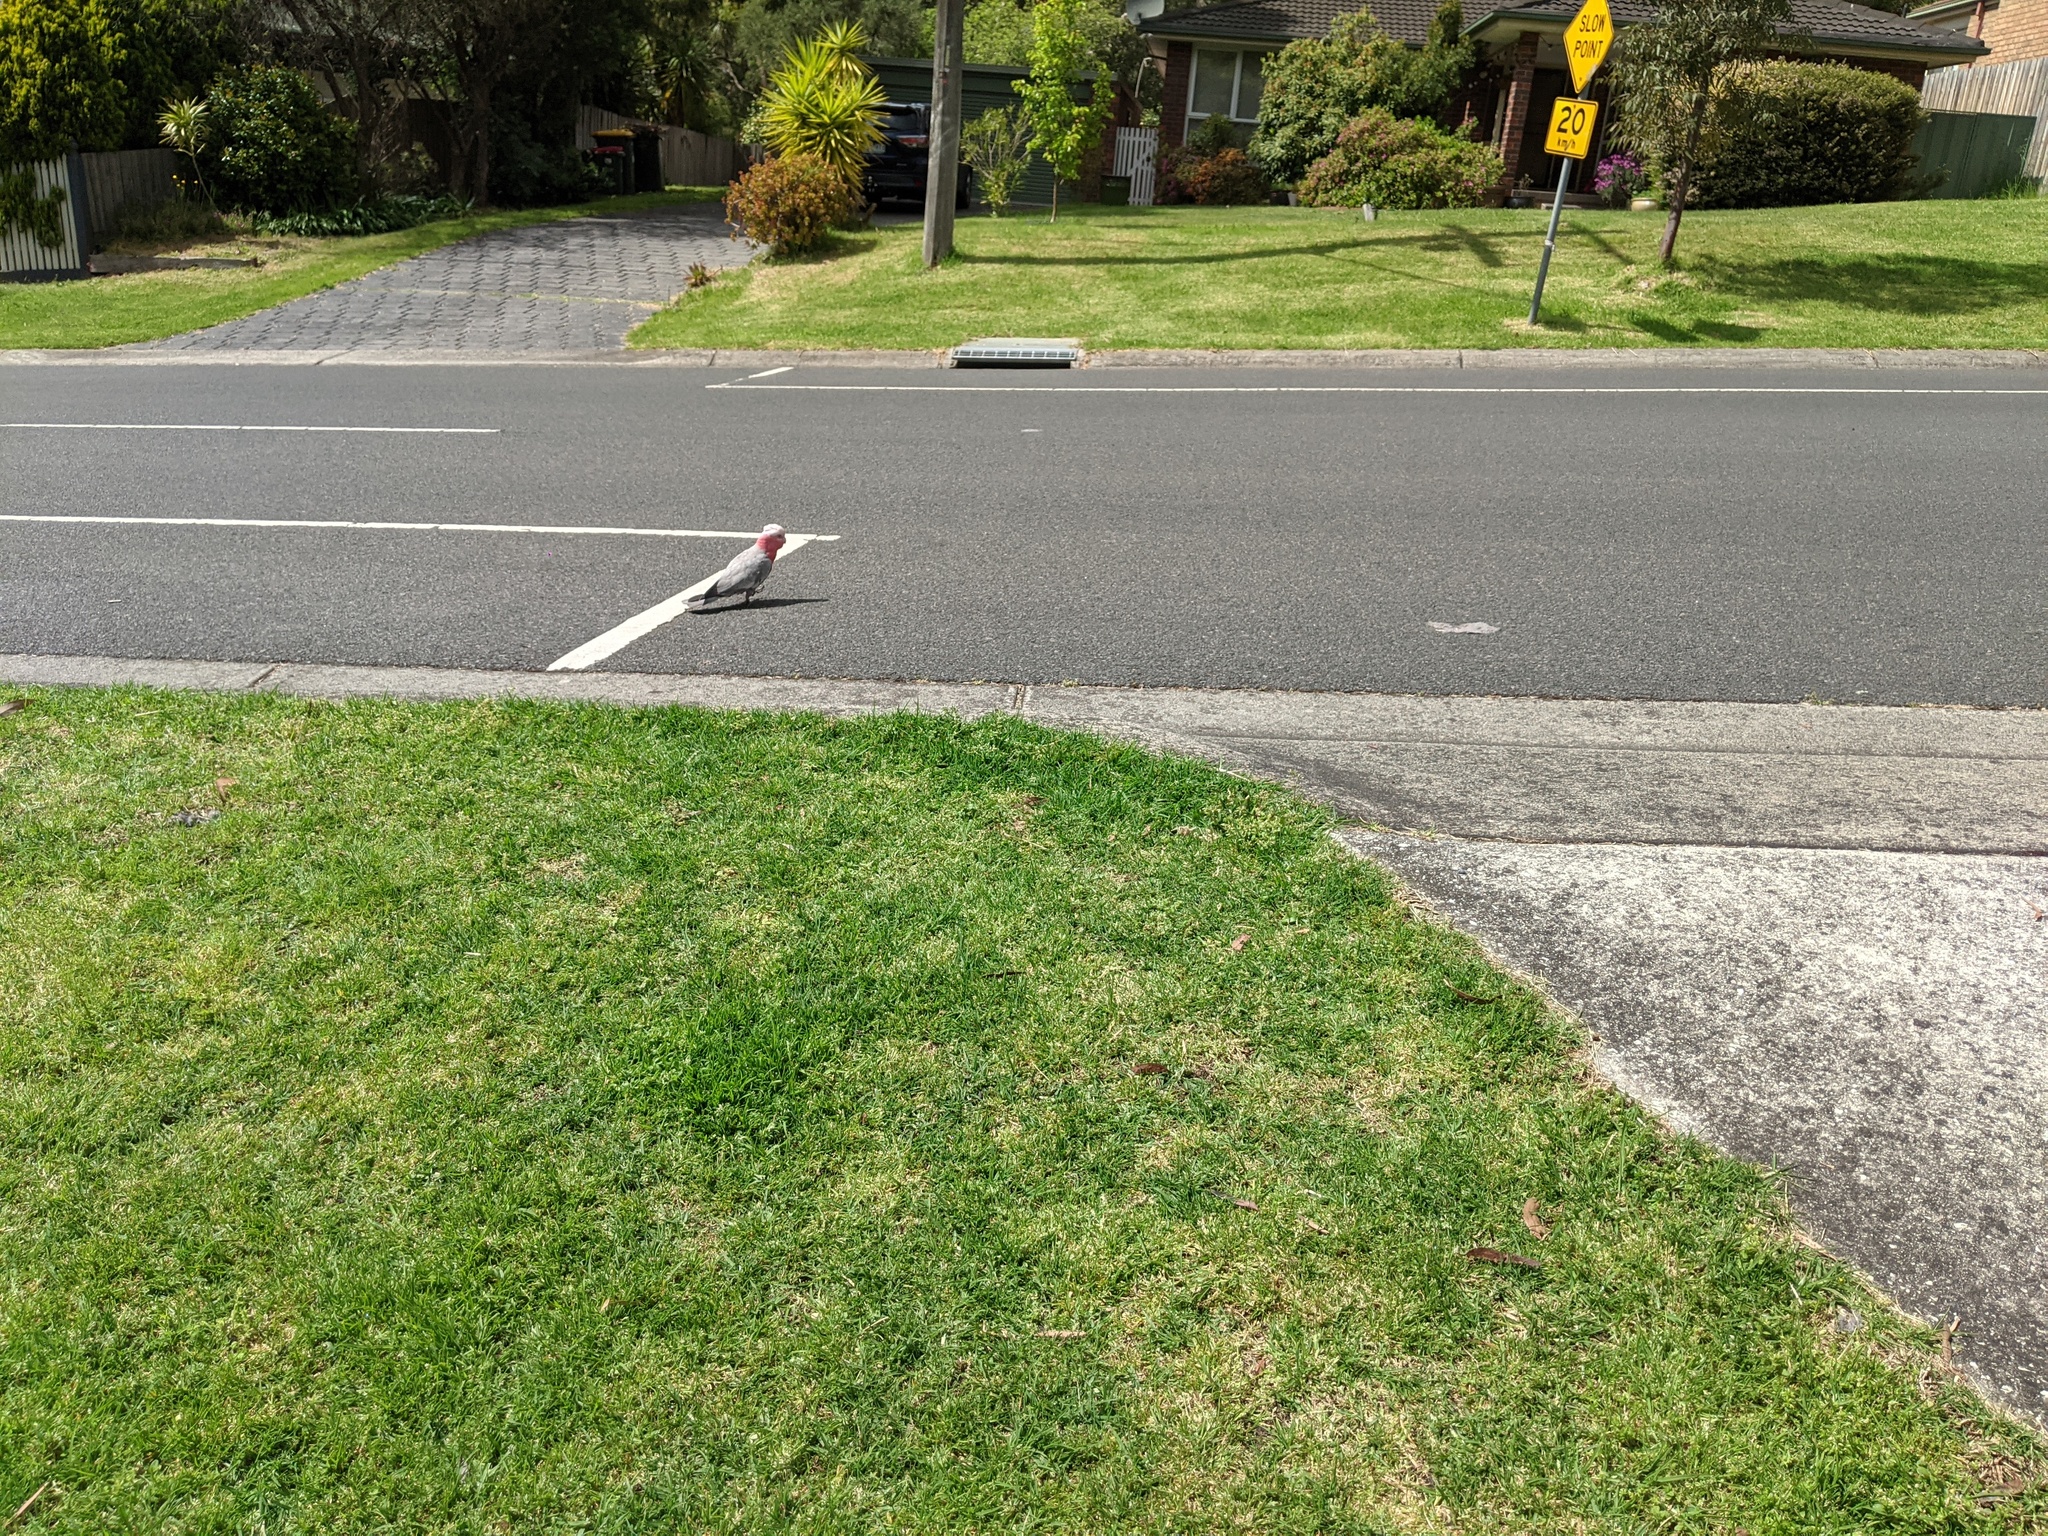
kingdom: Animalia
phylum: Chordata
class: Aves
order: Psittaciformes
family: Psittacidae
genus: Eolophus
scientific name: Eolophus roseicapilla
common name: Galah
